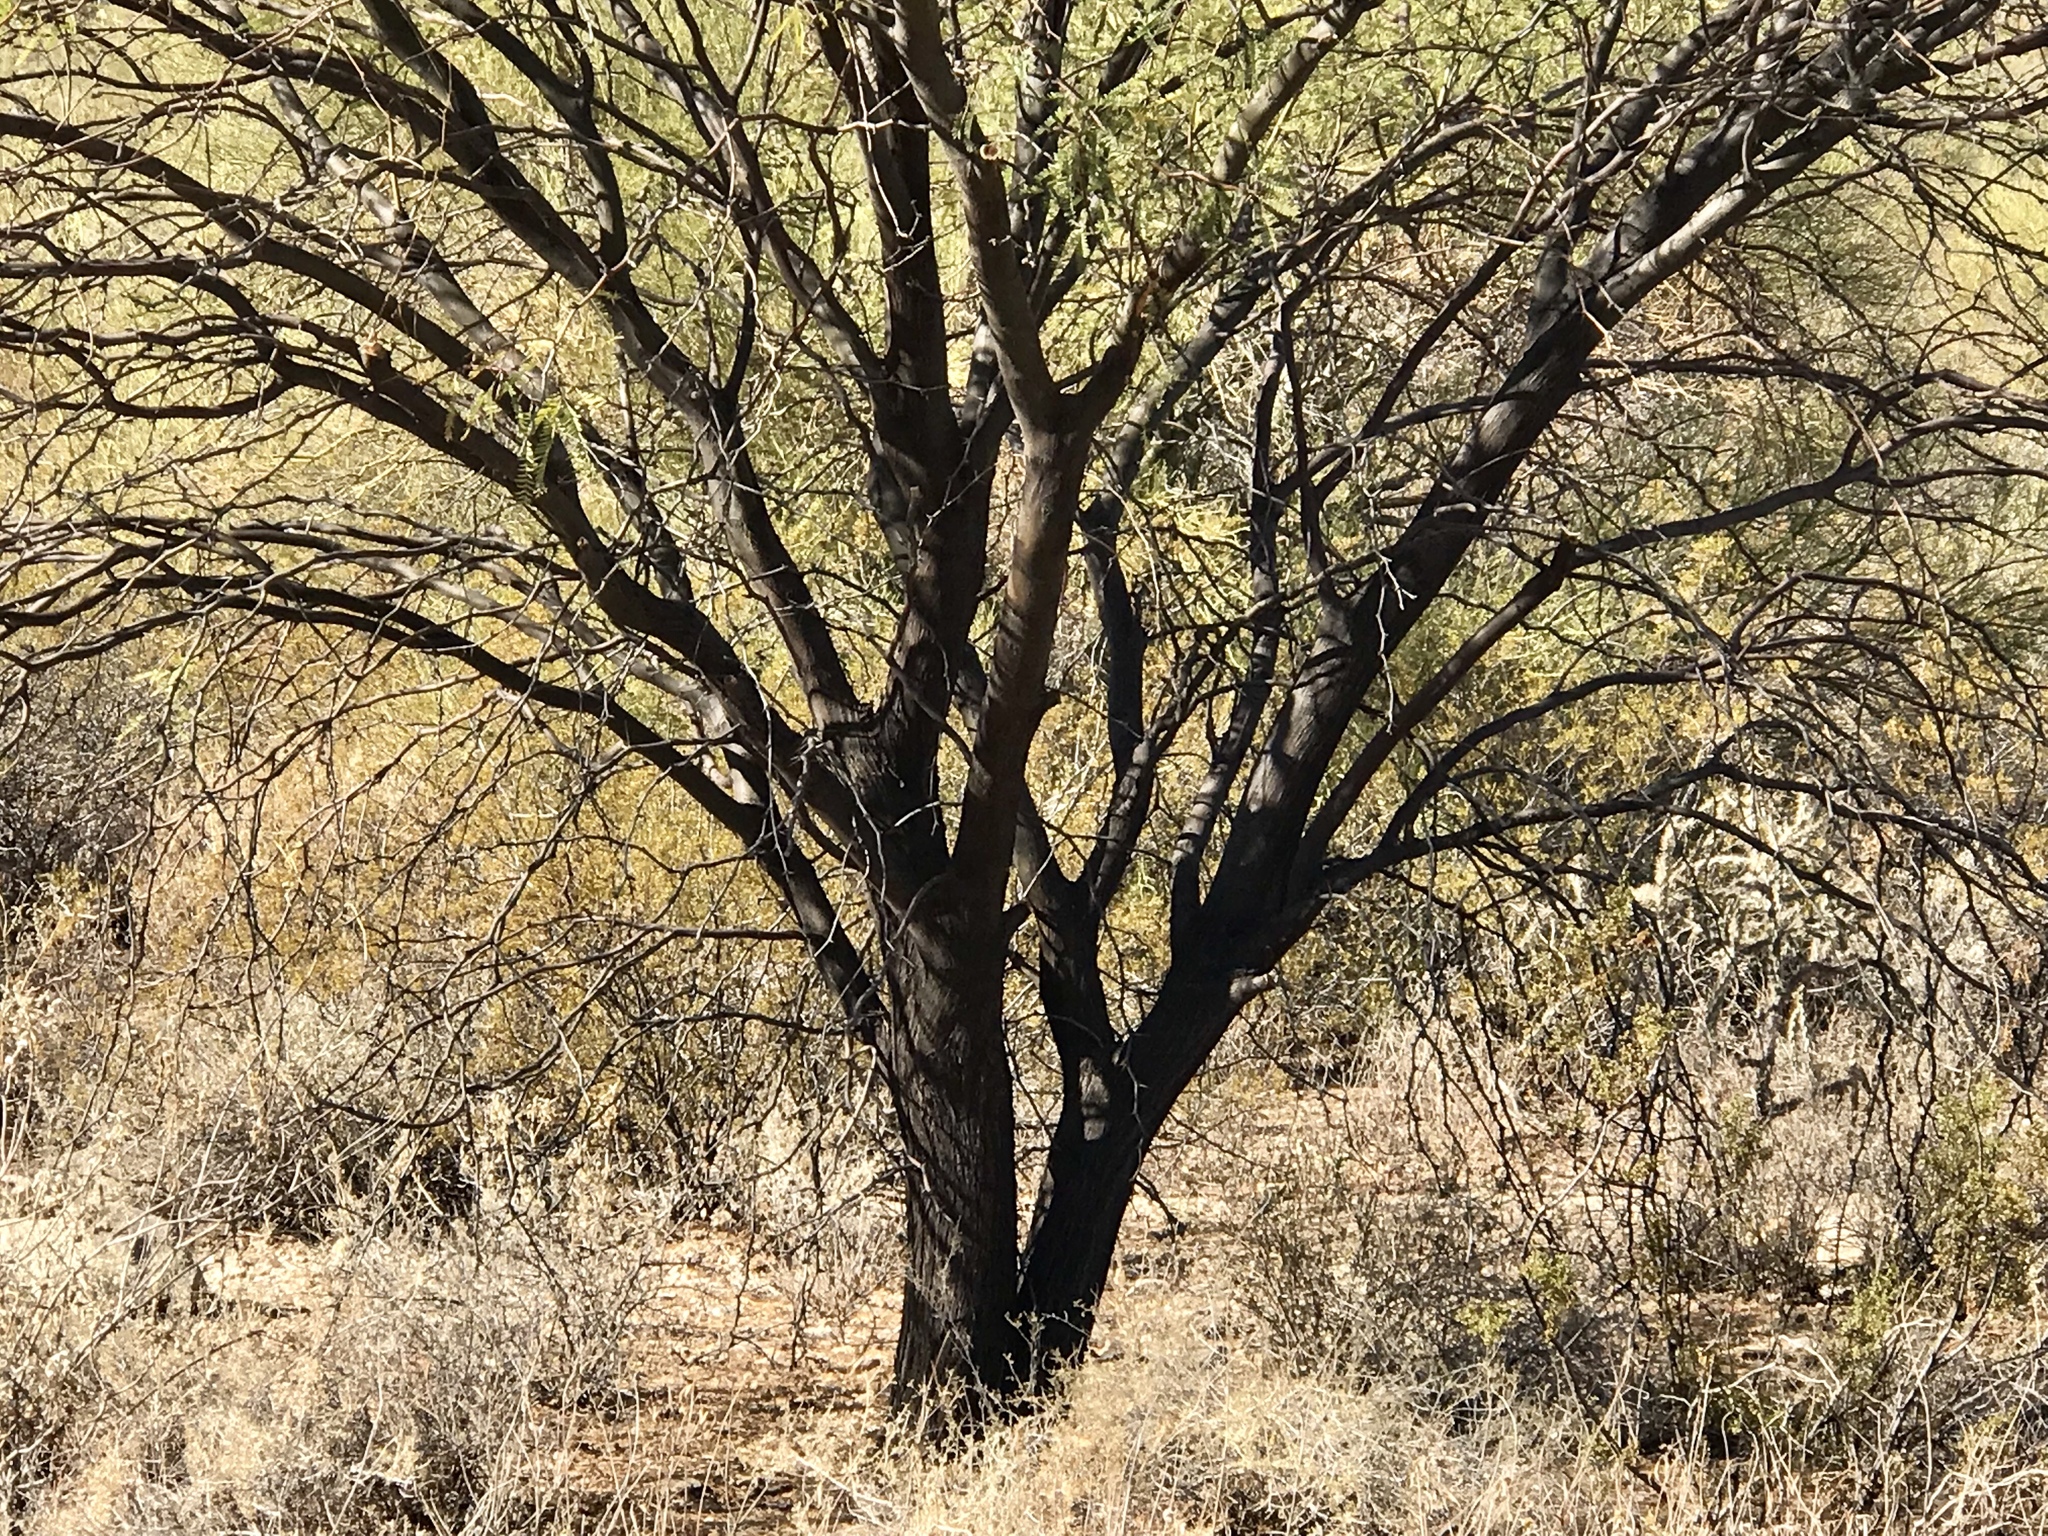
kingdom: Plantae
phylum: Tracheophyta
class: Magnoliopsida
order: Fabales
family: Fabaceae
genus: Prosopis
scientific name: Prosopis velutina
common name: Velvet mesquite
